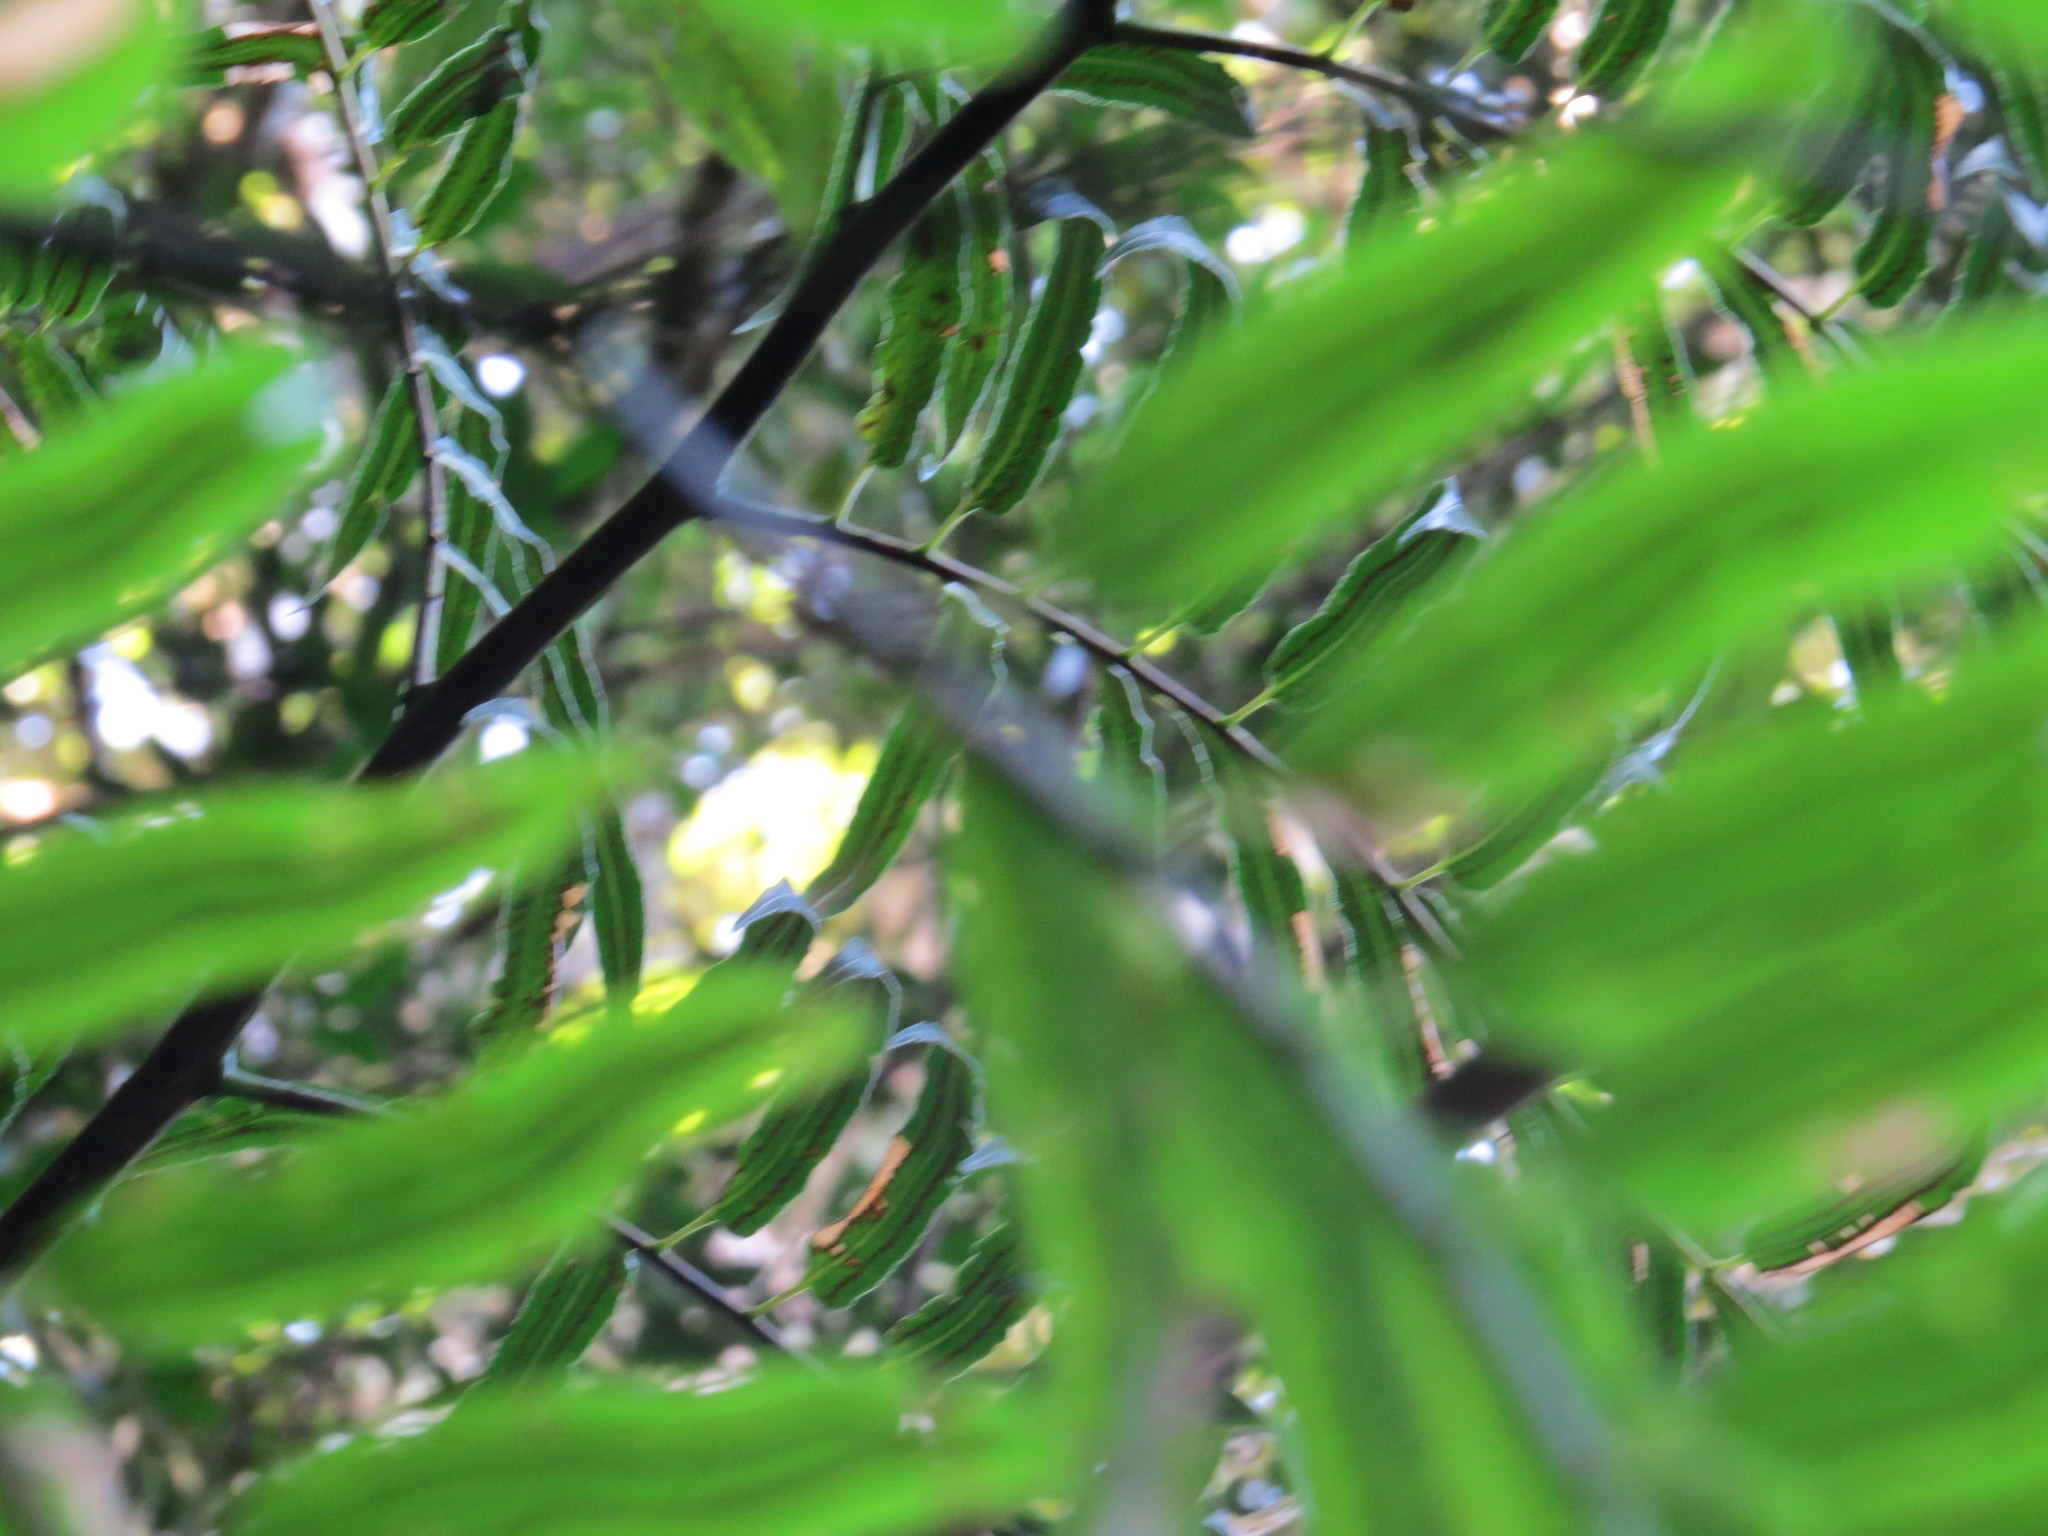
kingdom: Plantae
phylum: Tracheophyta
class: Polypodiopsida
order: Cyatheales
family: Cyatheaceae
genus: Cyathea
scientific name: Cyathea corcovadensis
